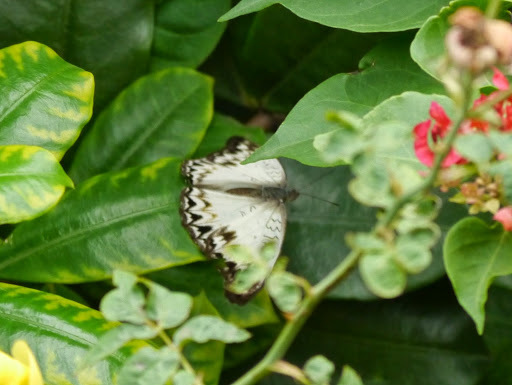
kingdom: Animalia
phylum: Arthropoda
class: Insecta
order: Lepidoptera
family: Nymphalidae
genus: Cymothoe
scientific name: Cymothoe caenis
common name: Common glider
